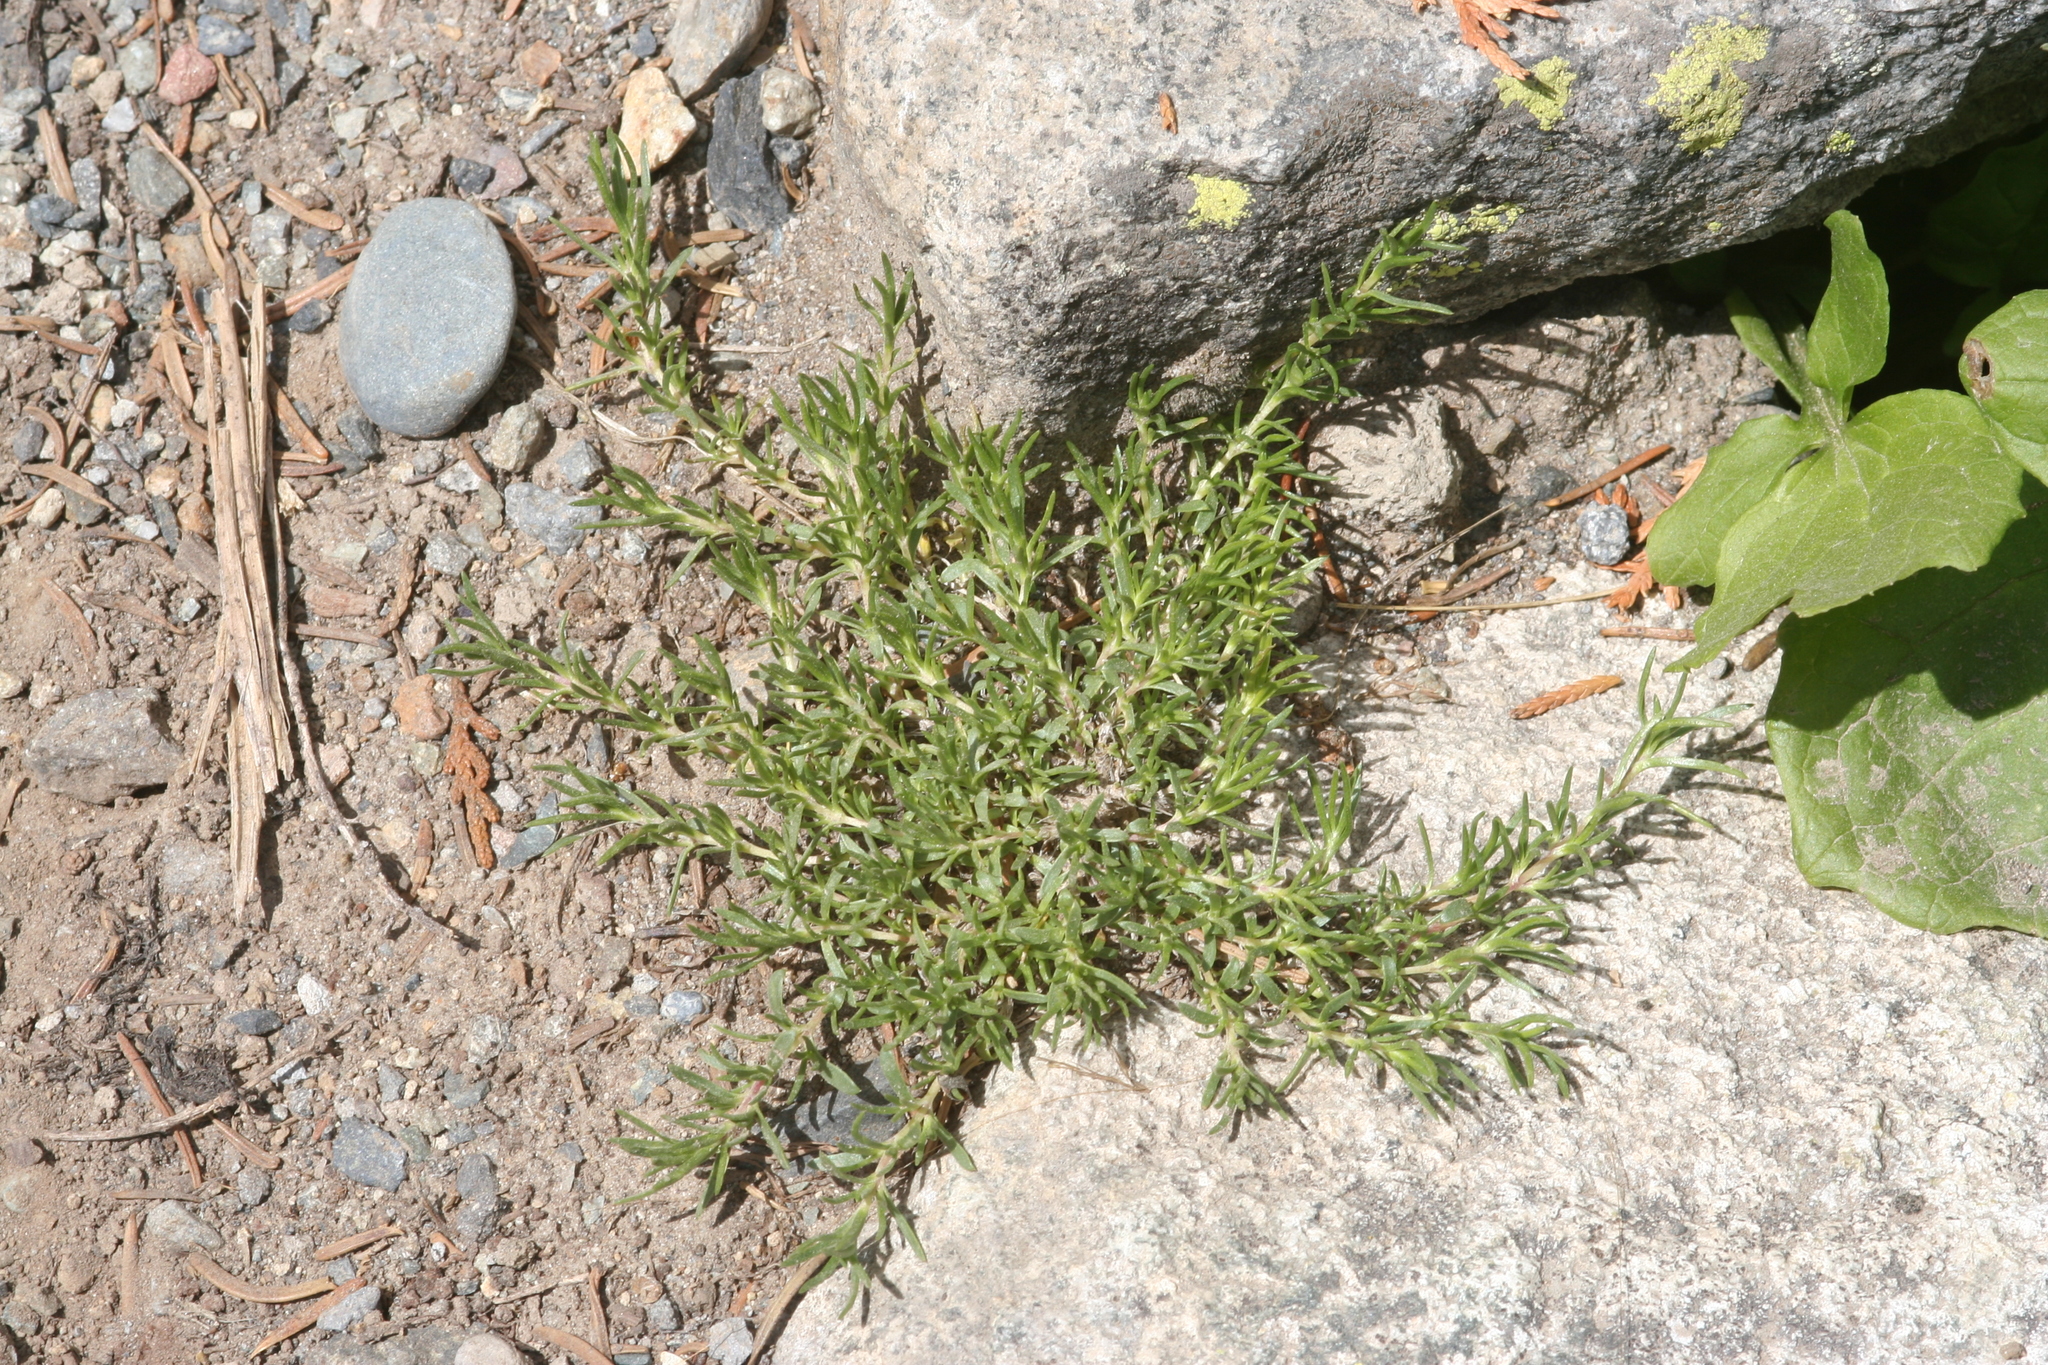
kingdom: Plantae
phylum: Tracheophyta
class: Magnoliopsida
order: Ericales
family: Polemoniaceae
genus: Phlox
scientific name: Phlox diffusa
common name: Mat phlox
